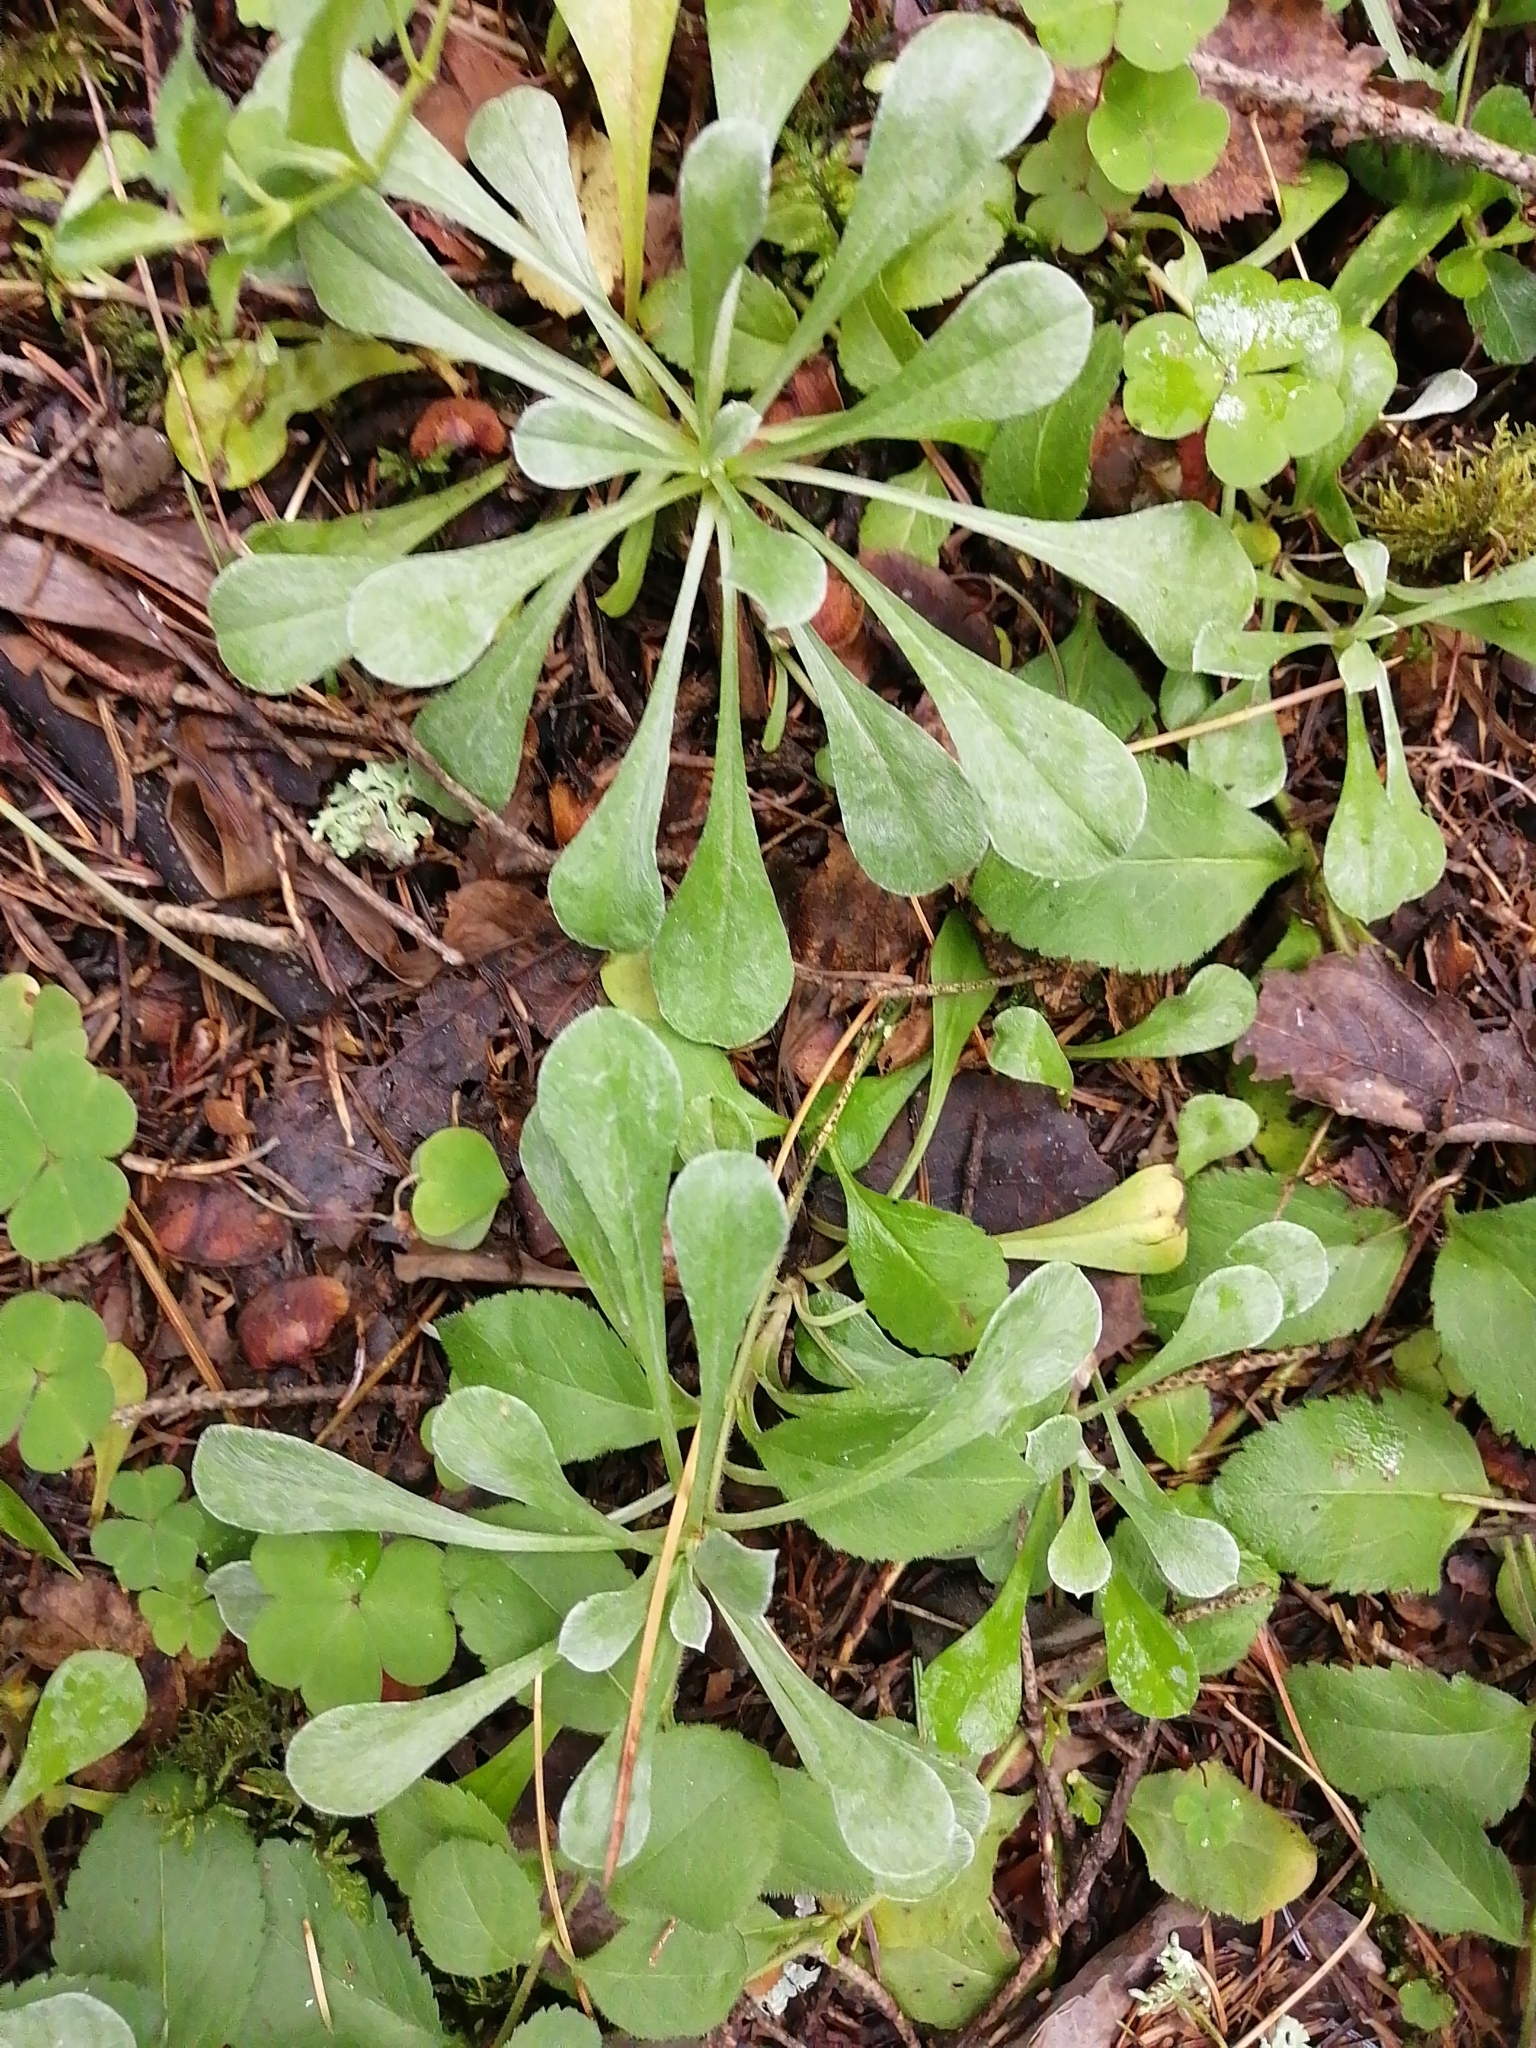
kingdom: Plantae
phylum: Tracheophyta
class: Magnoliopsida
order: Asterales
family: Asteraceae
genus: Antennaria
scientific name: Antennaria dioica
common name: Mountain everlasting
